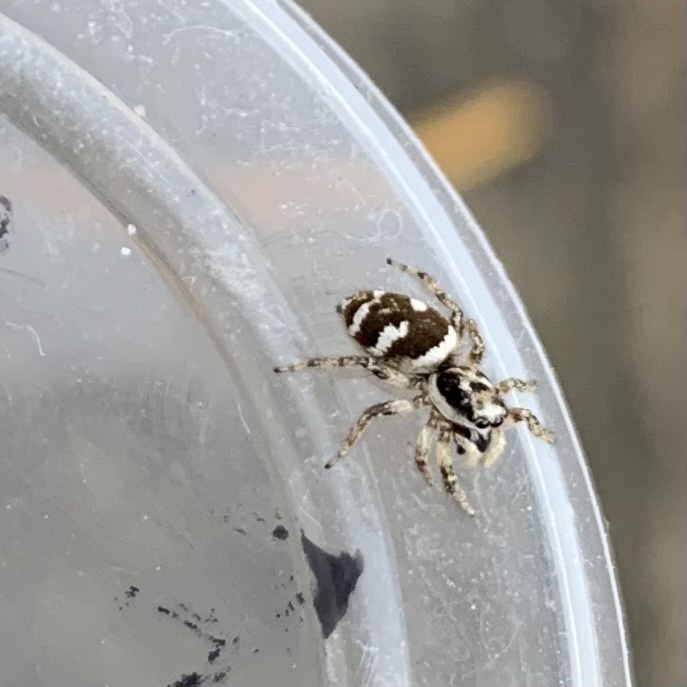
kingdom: Animalia
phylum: Arthropoda
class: Arachnida
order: Araneae
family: Salticidae
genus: Salticus
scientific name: Salticus scenicus
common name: Zebra jumper
